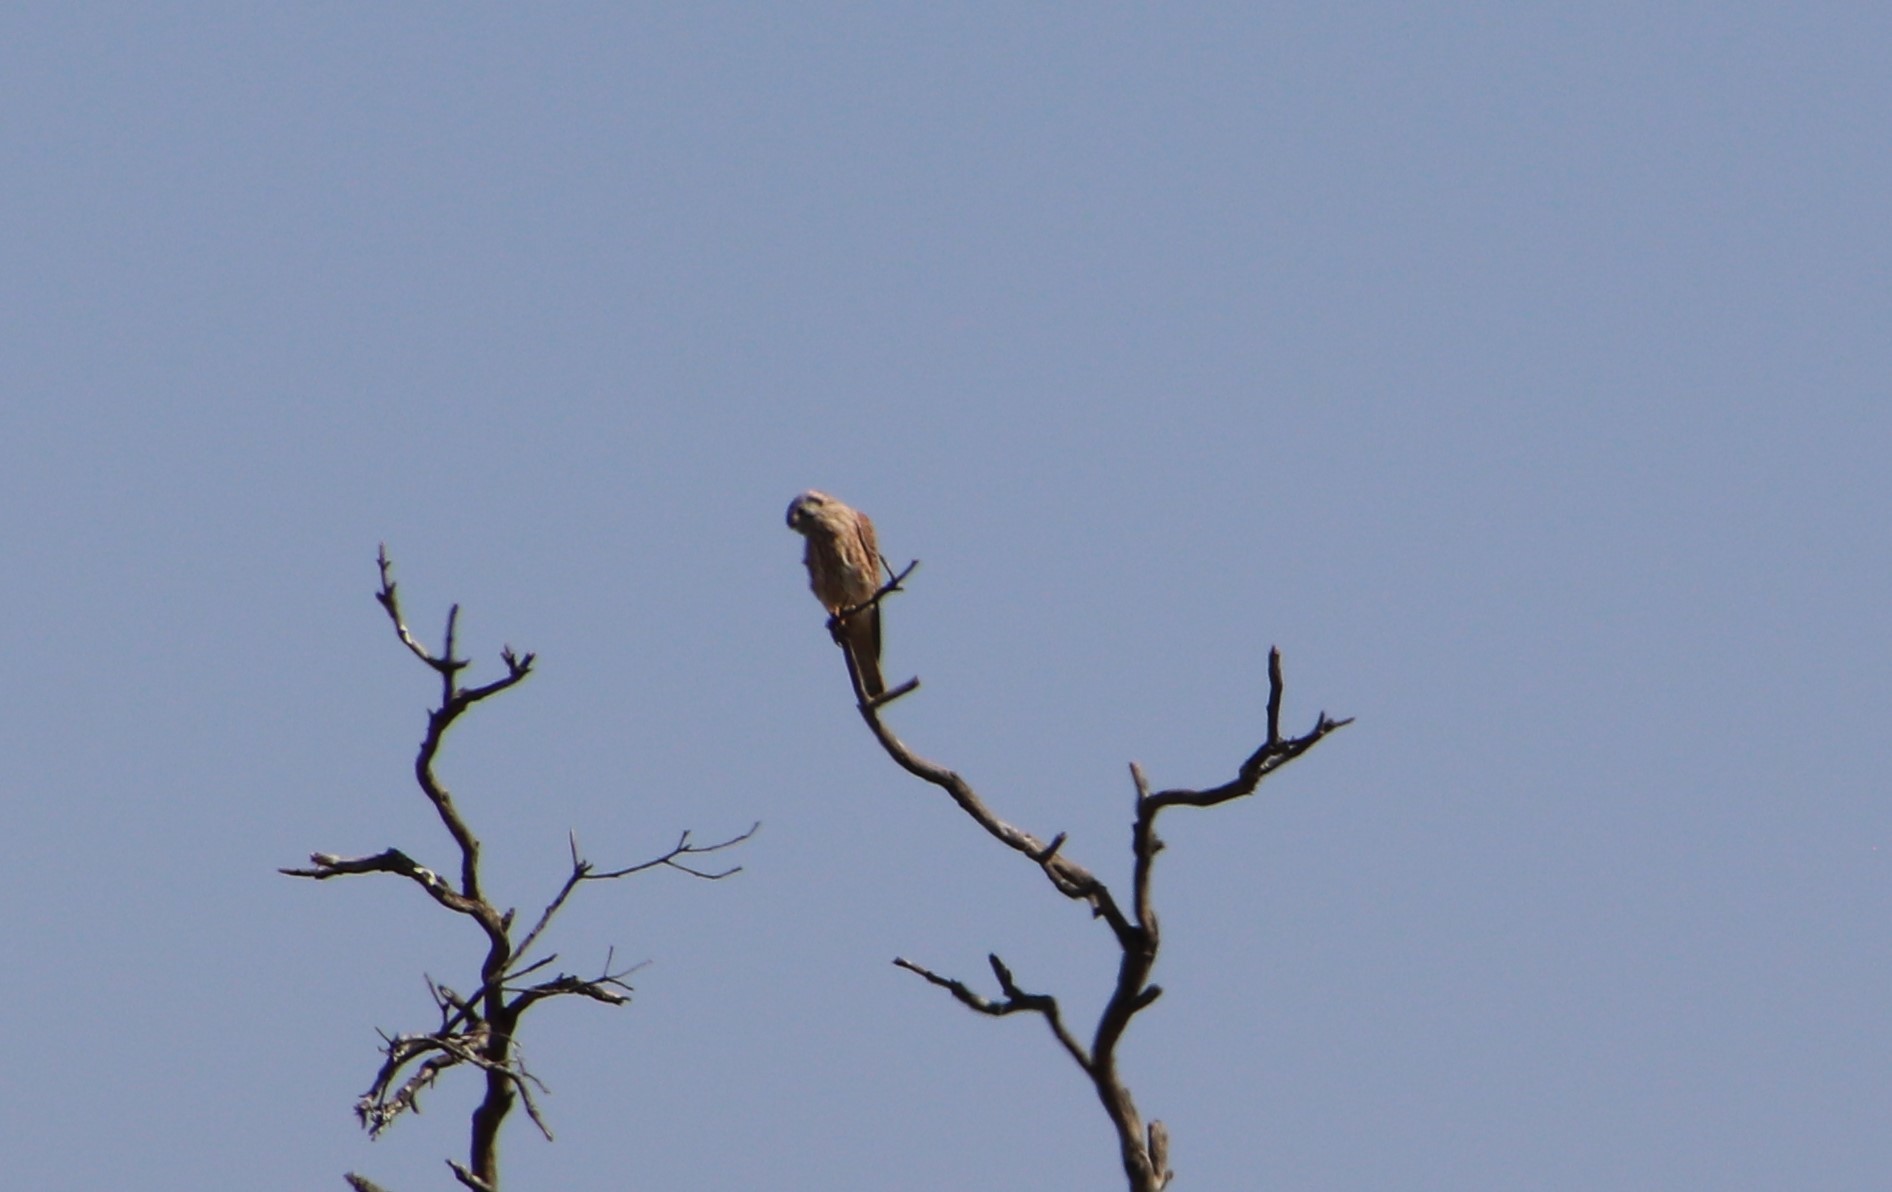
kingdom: Animalia
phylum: Chordata
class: Aves
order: Falconiformes
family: Falconidae
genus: Falco
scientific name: Falco sparverius
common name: American kestrel
